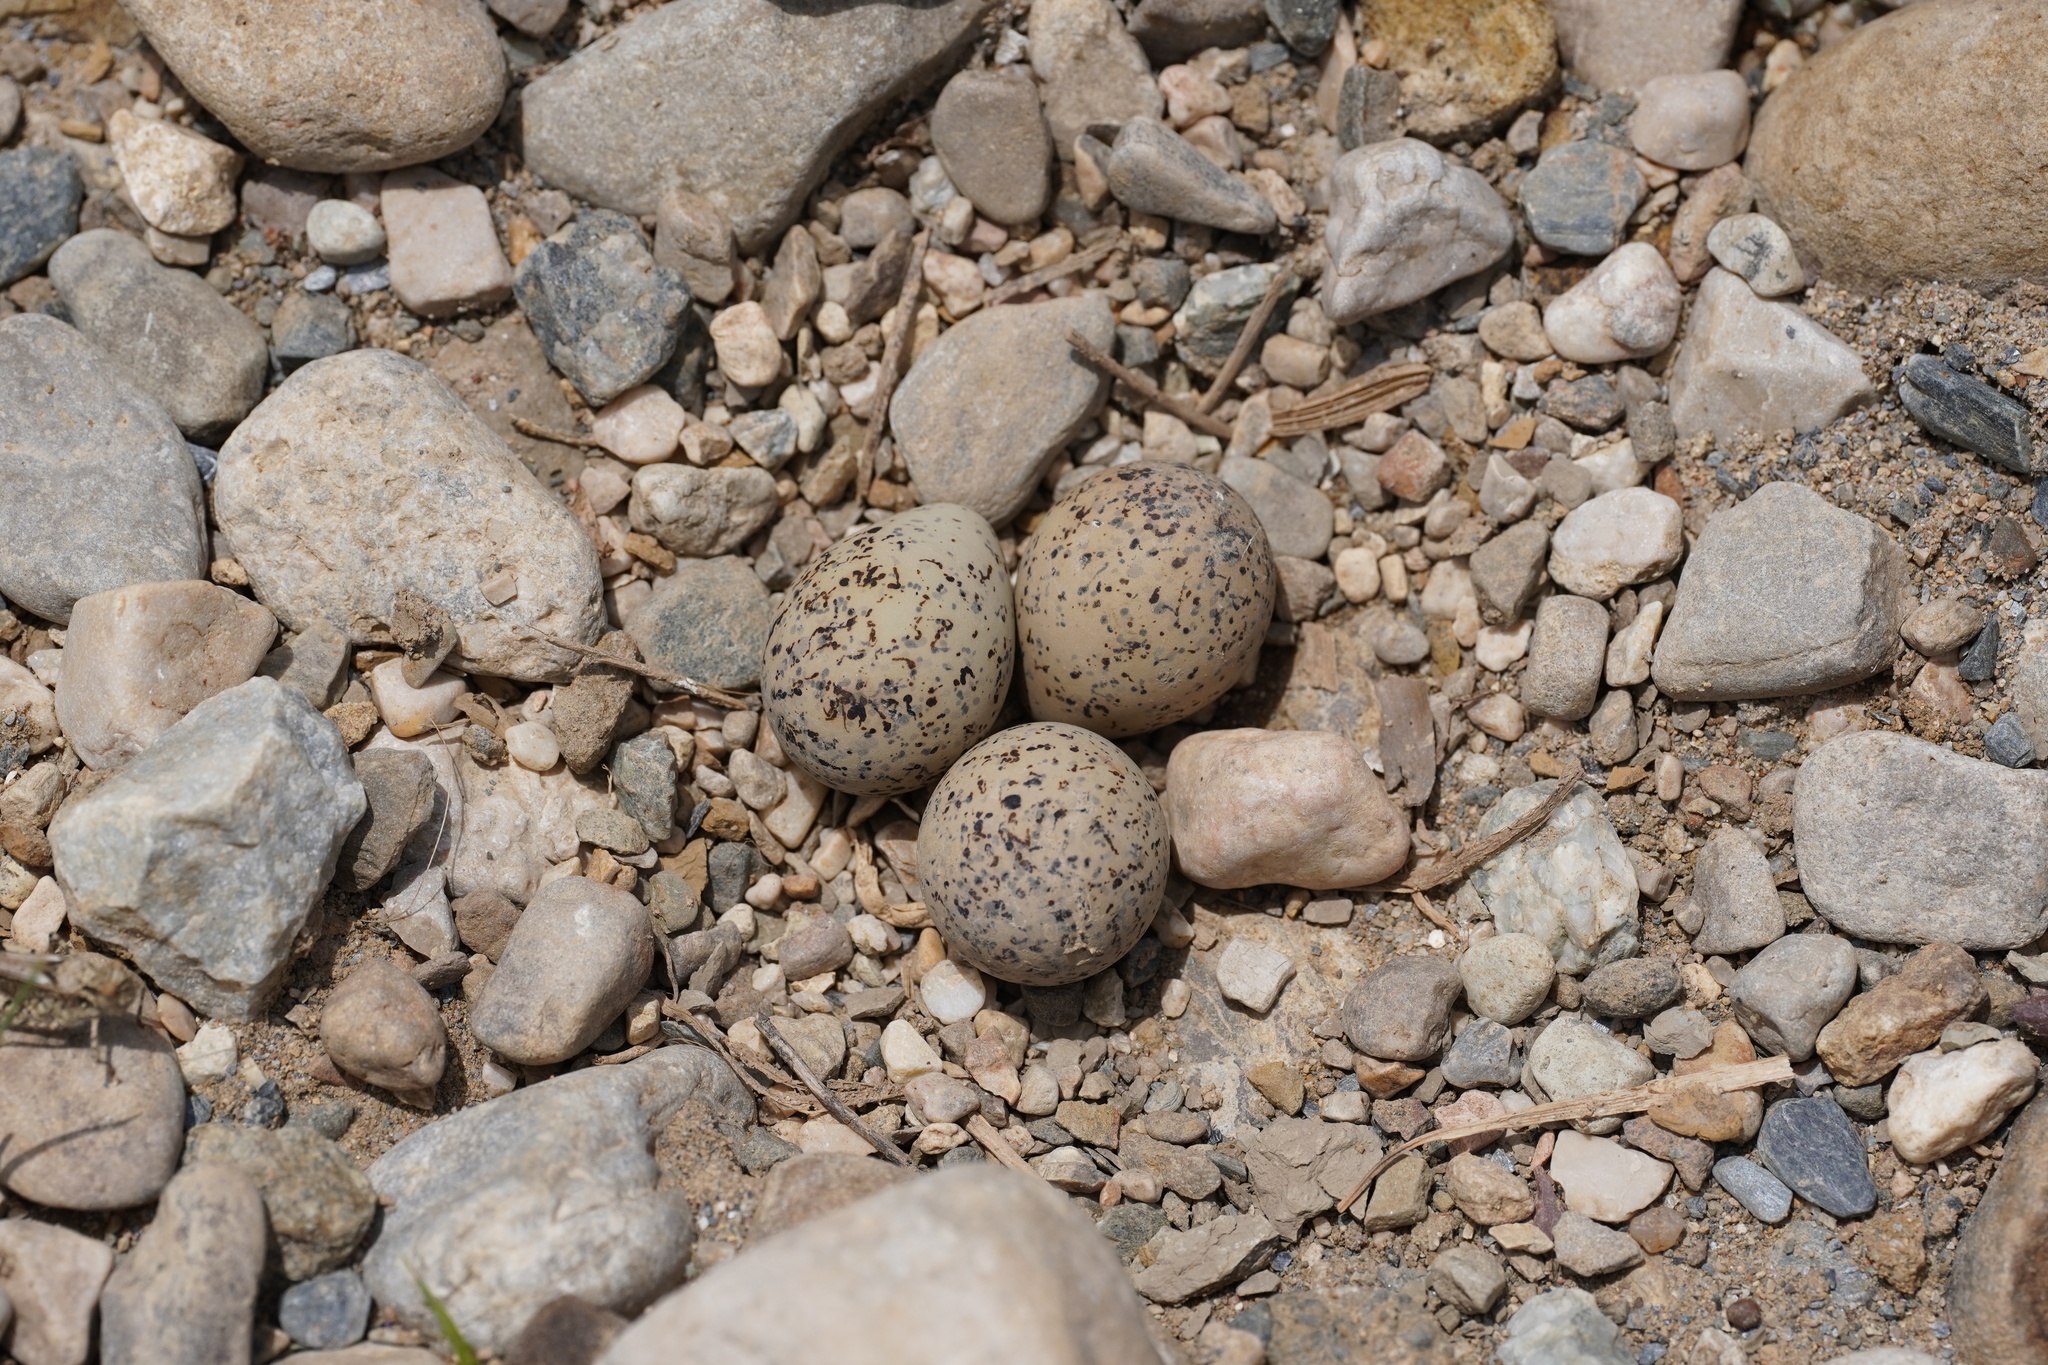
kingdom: Animalia
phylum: Chordata
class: Aves
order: Charadriiformes
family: Charadriidae
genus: Charadrius
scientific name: Charadrius dubius
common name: Little ringed plover
